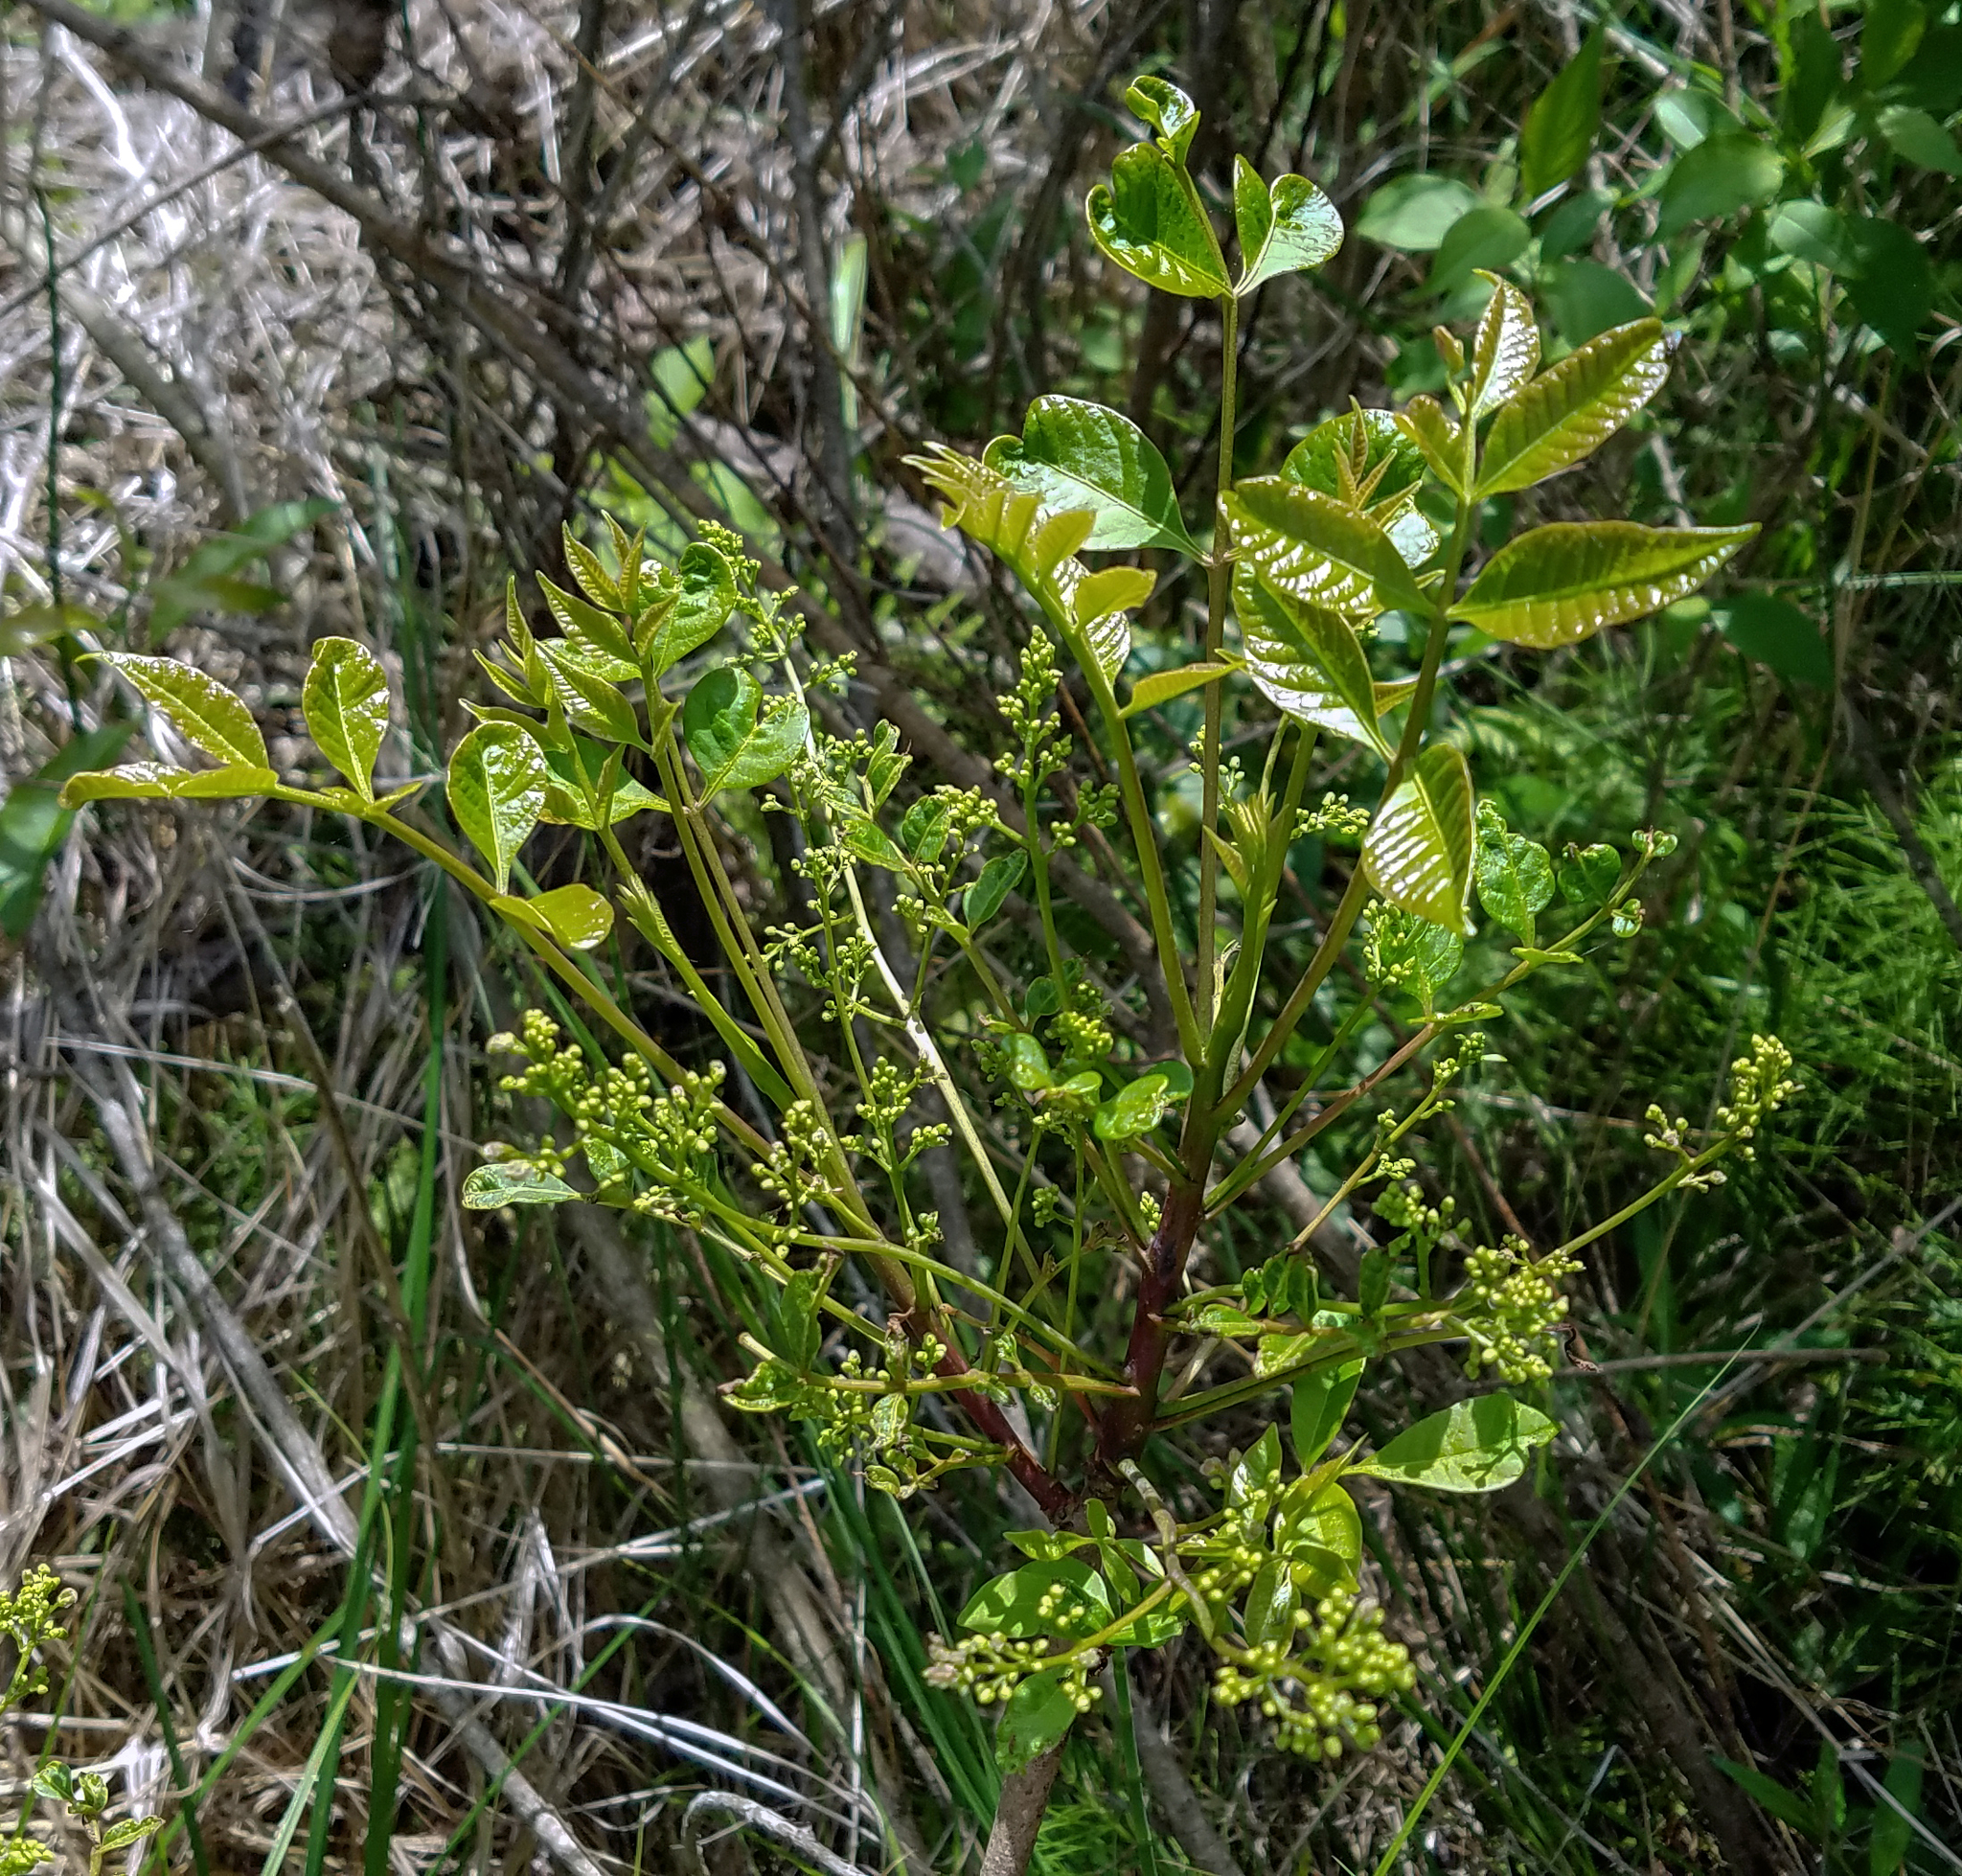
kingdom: Plantae
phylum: Tracheophyta
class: Magnoliopsida
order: Sapindales
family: Anacardiaceae
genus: Toxicodendron
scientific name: Toxicodendron vernix
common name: Poison sumac
